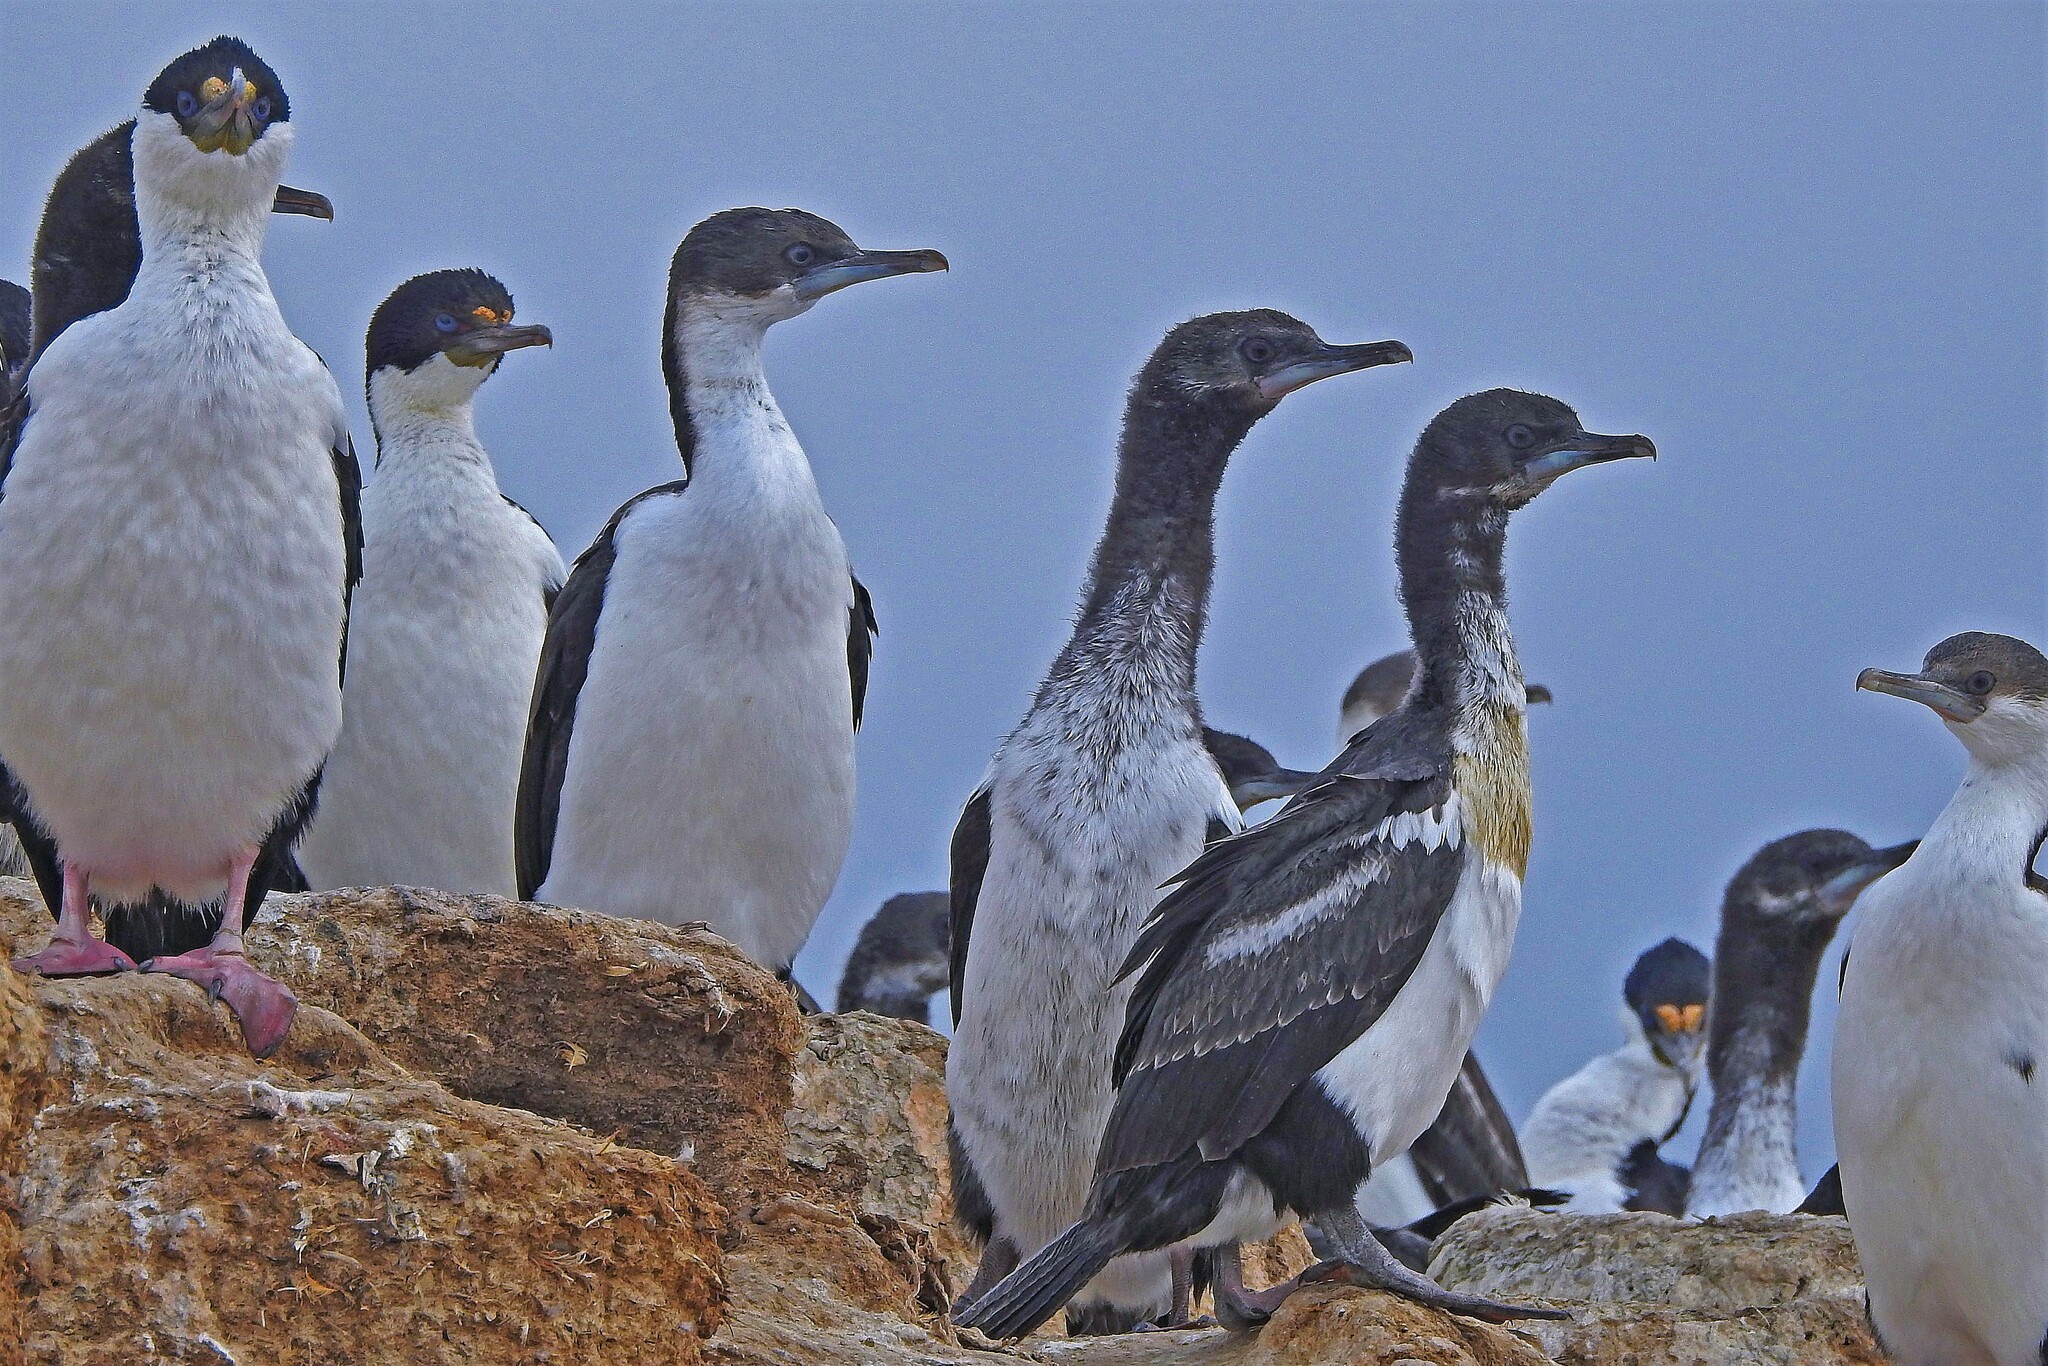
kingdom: Animalia
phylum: Chordata
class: Aves
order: Suliformes
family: Phalacrocoracidae
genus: Leucocarbo
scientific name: Leucocarbo atriceps
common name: Imperial shag
